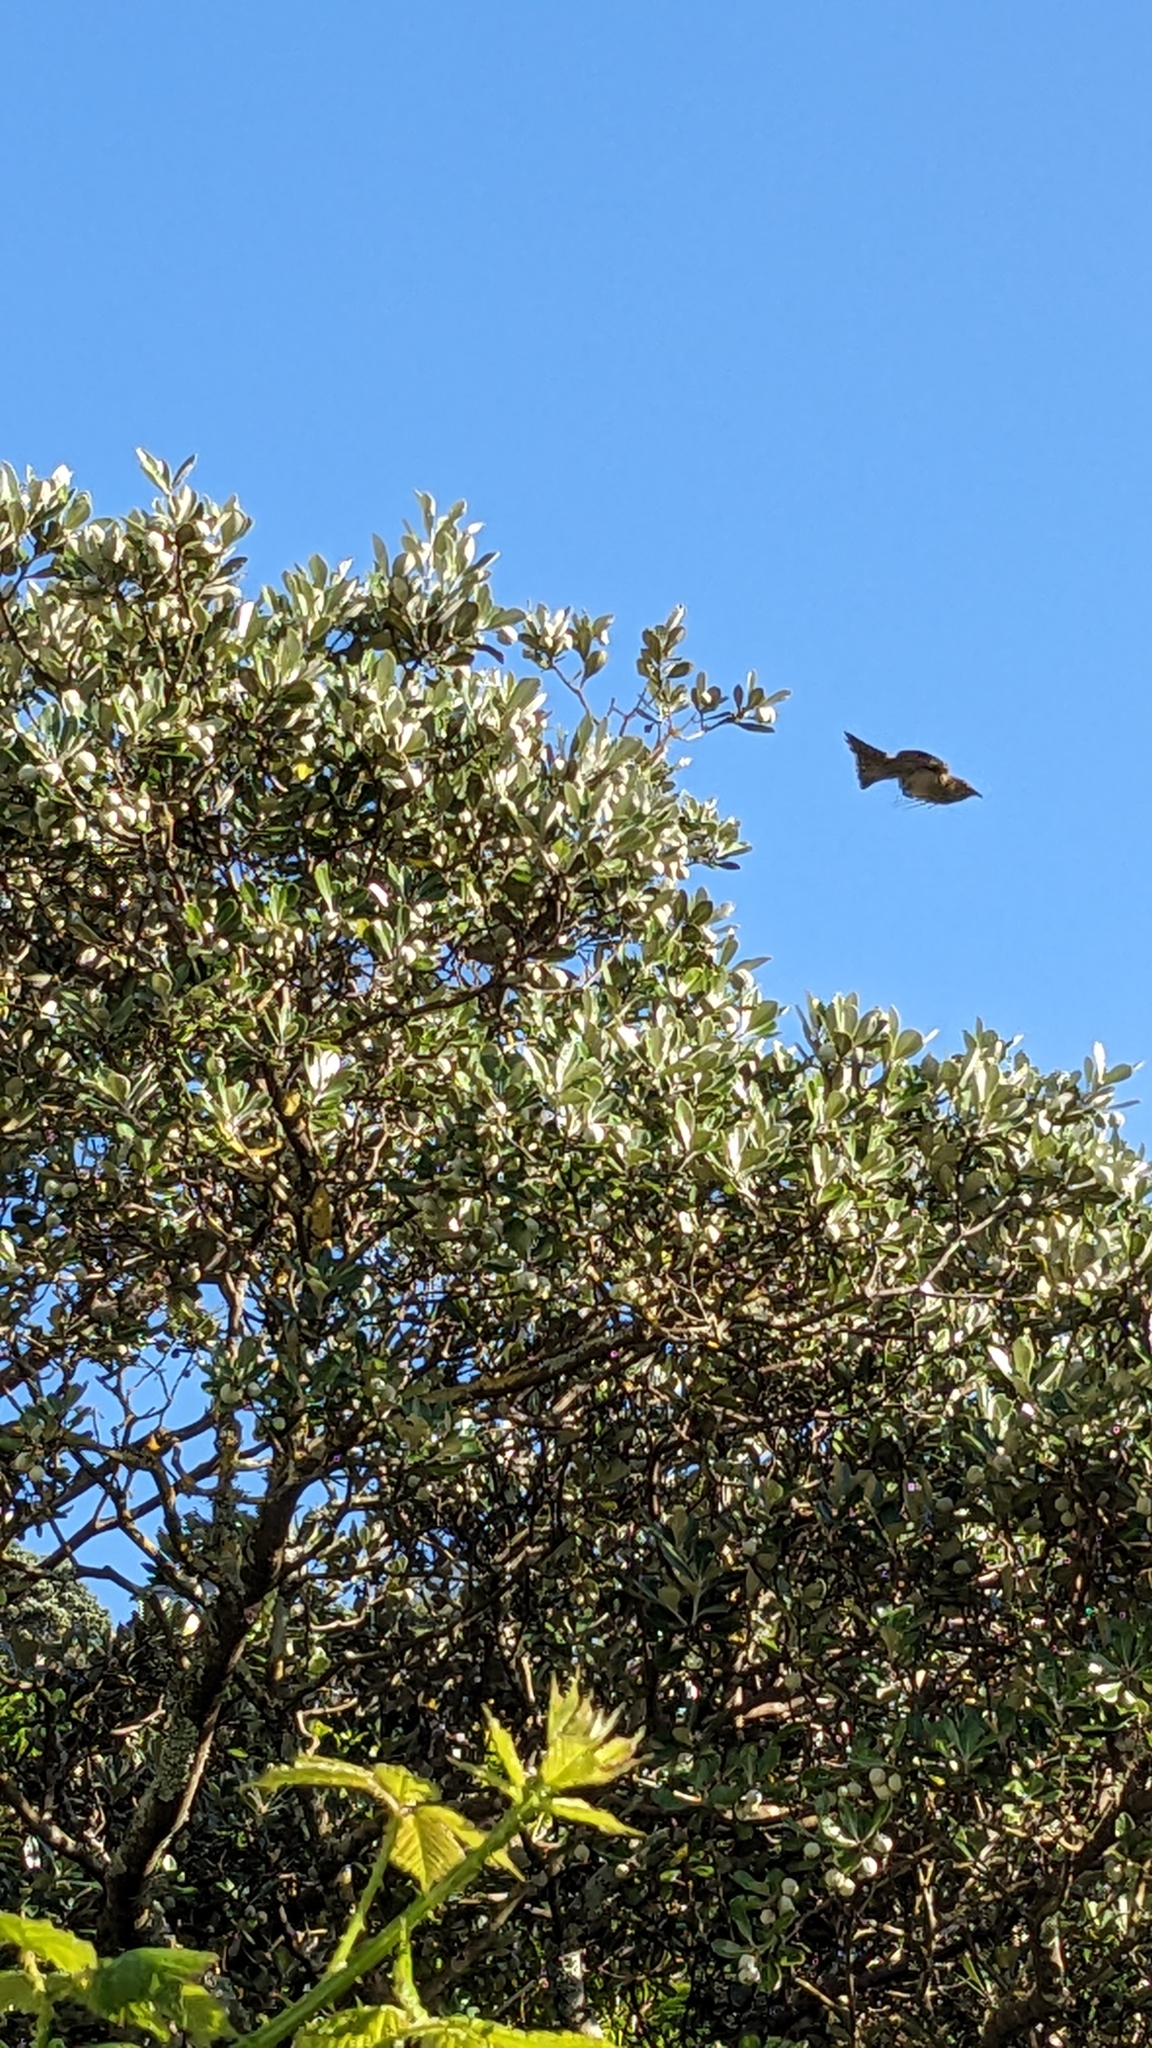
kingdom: Animalia
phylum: Chordata
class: Aves
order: Passeriformes
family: Meliphagidae
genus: Anthornis
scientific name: Anthornis melanura
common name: New zealand bellbird
